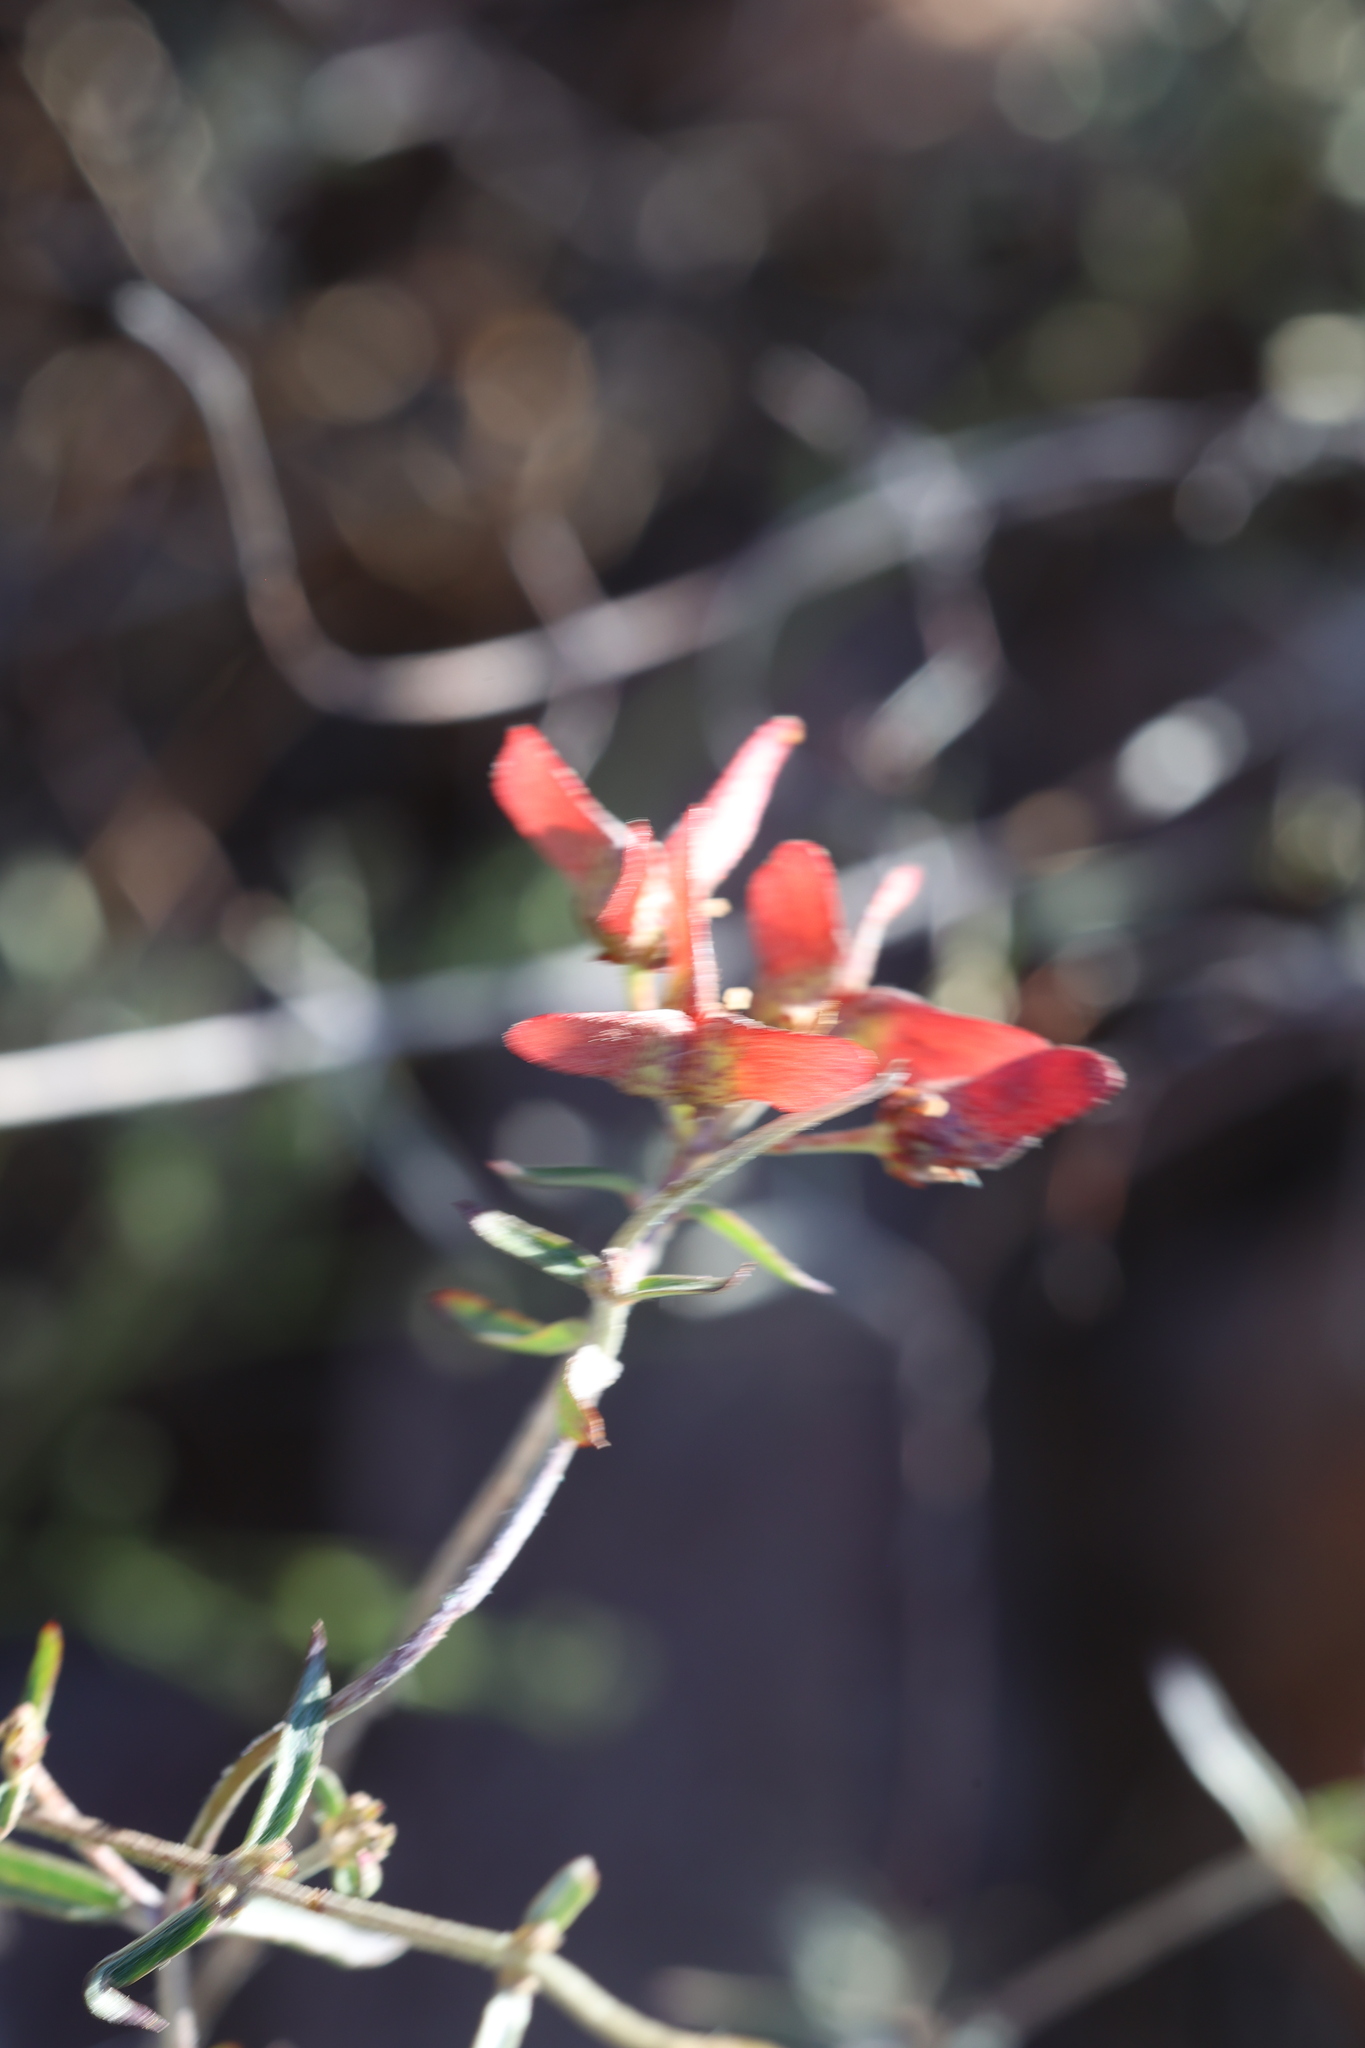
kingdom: Plantae
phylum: Tracheophyta
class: Magnoliopsida
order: Malpighiales
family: Malpighiaceae
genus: Cottsia
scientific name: Cottsia gracilis
